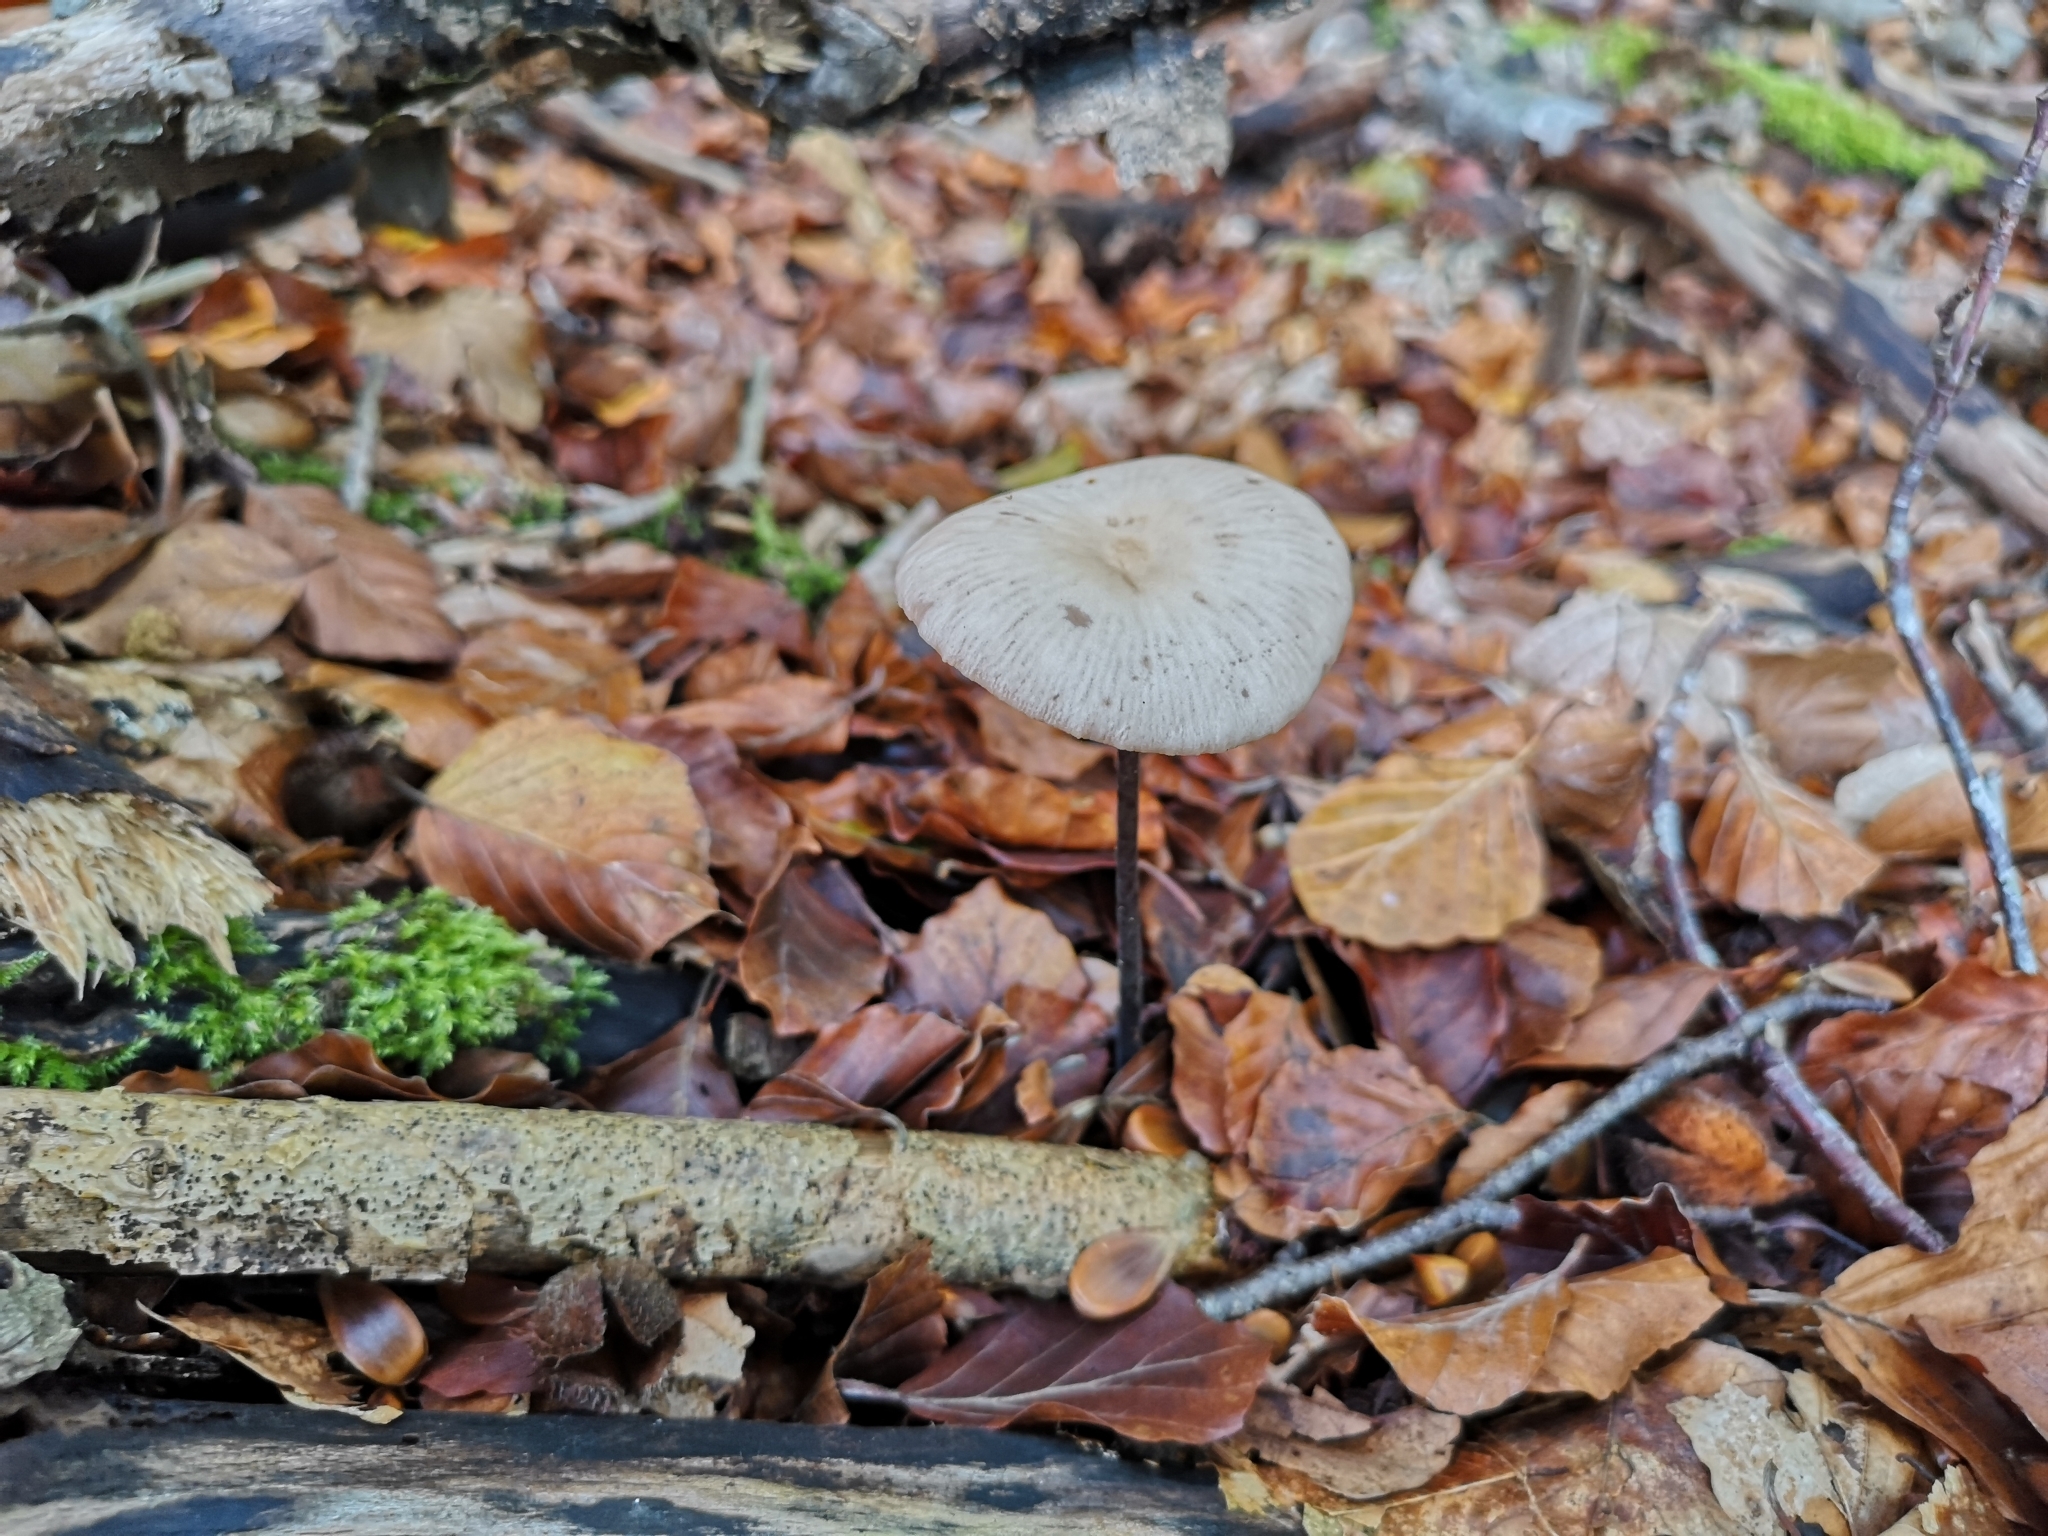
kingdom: Fungi
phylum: Basidiomycota
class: Agaricomycetes
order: Agaricales
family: Omphalotaceae
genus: Mycetinis
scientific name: Mycetinis alliaceus
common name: Garlic parachute
